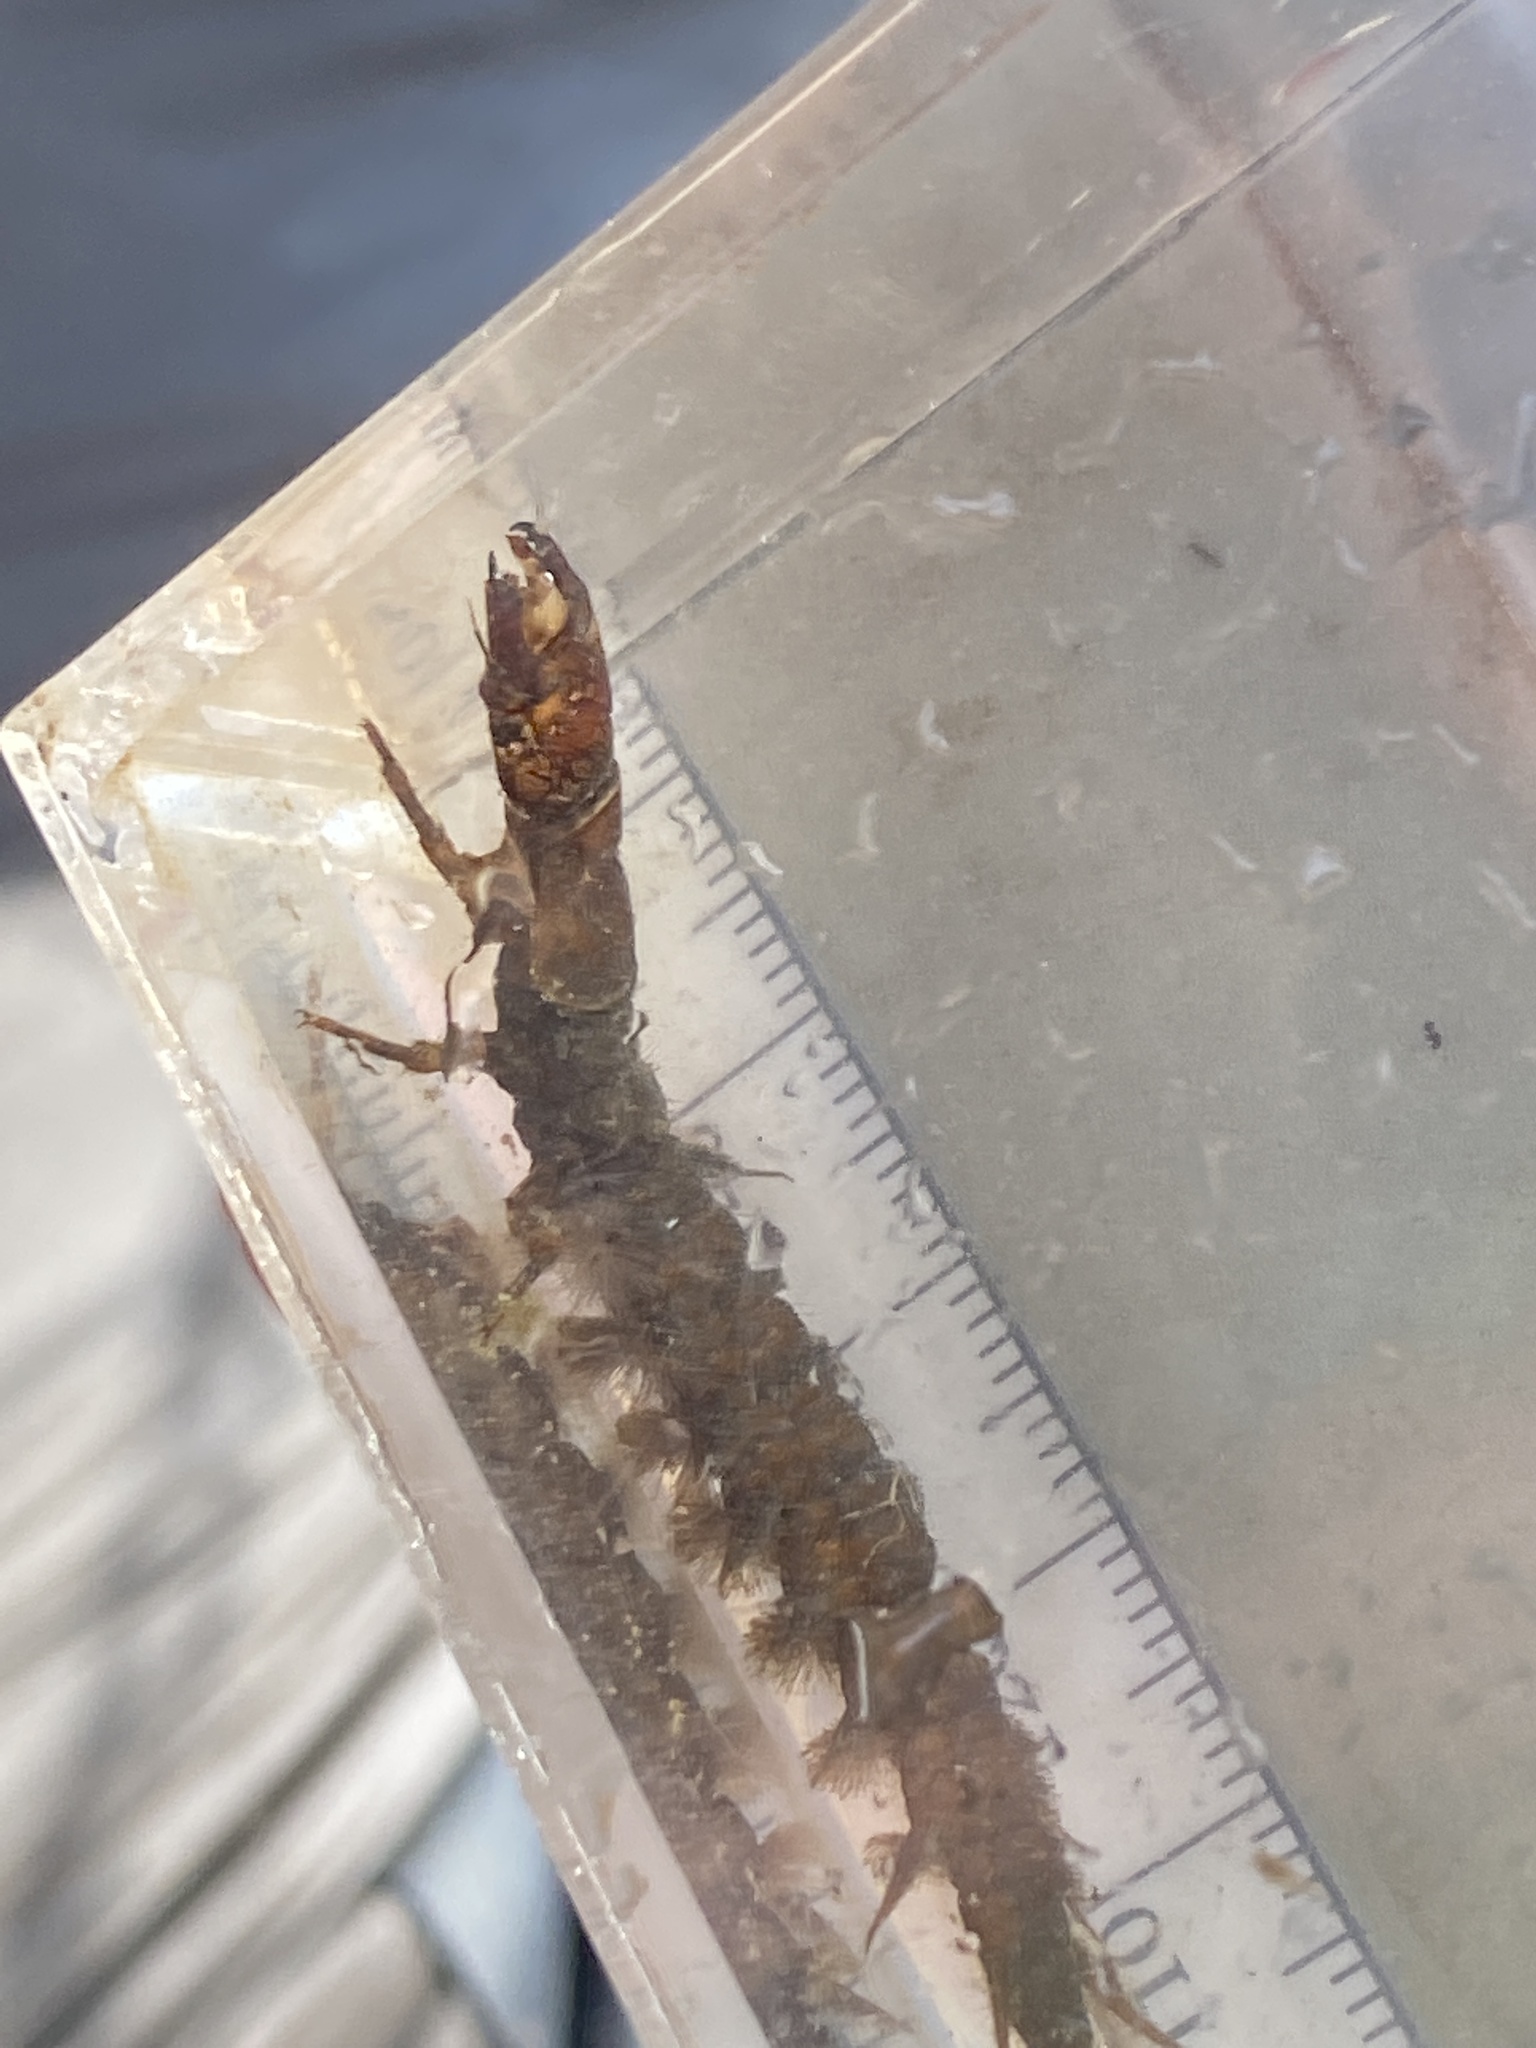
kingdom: Animalia
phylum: Arthropoda
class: Insecta
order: Megaloptera
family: Corydalidae
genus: Corydalus
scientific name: Corydalus cornutus
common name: Dobsonfly
